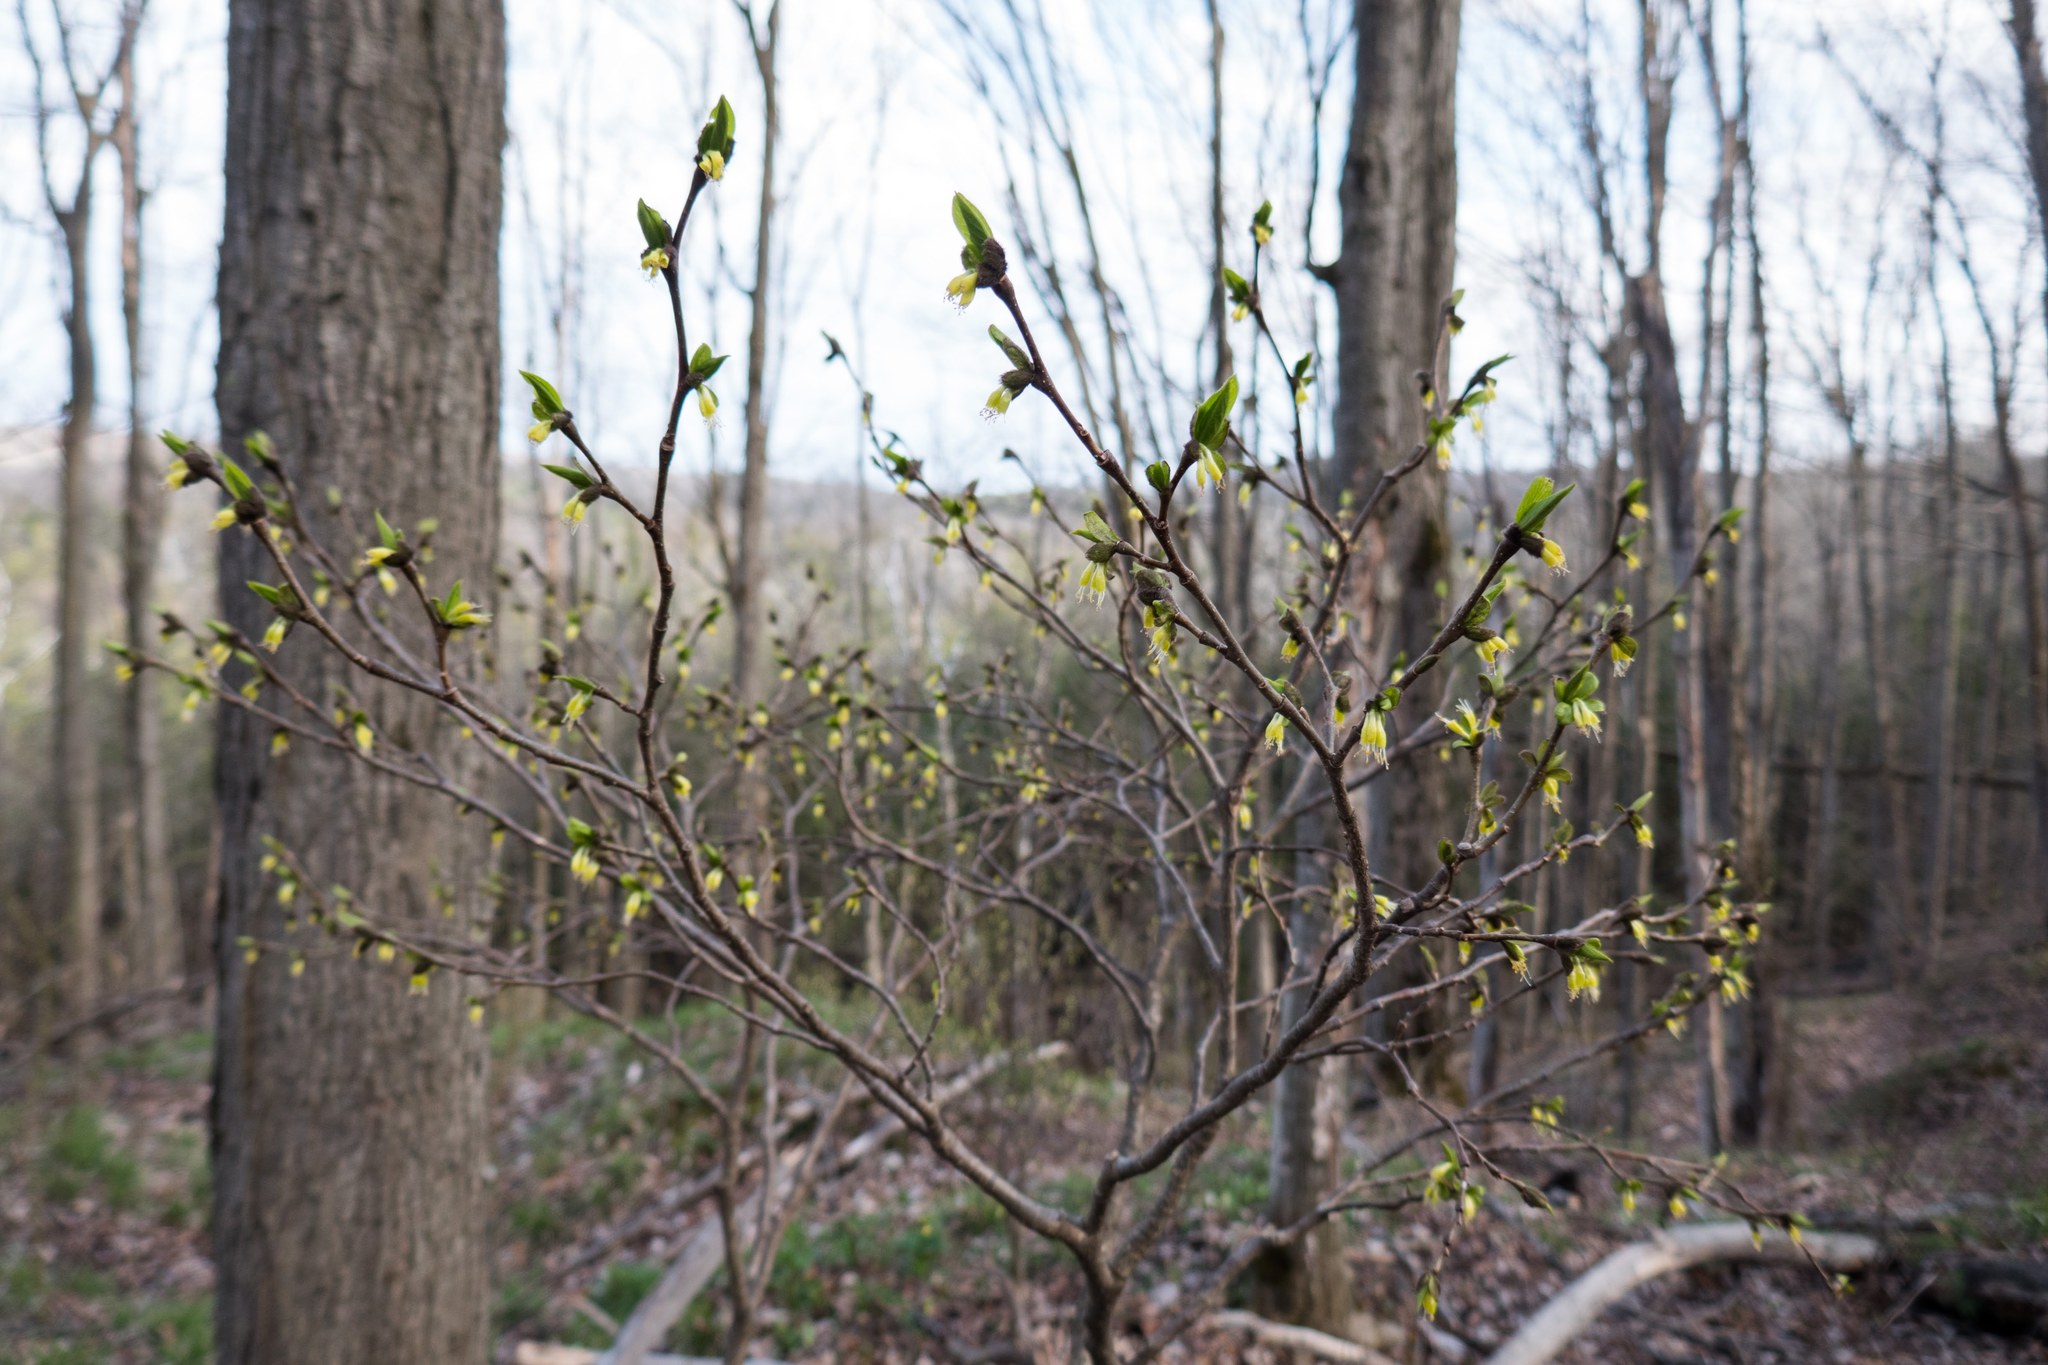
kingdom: Plantae
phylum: Tracheophyta
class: Magnoliopsida
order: Malvales
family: Thymelaeaceae
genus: Dirca
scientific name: Dirca palustris
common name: Leatherwood
